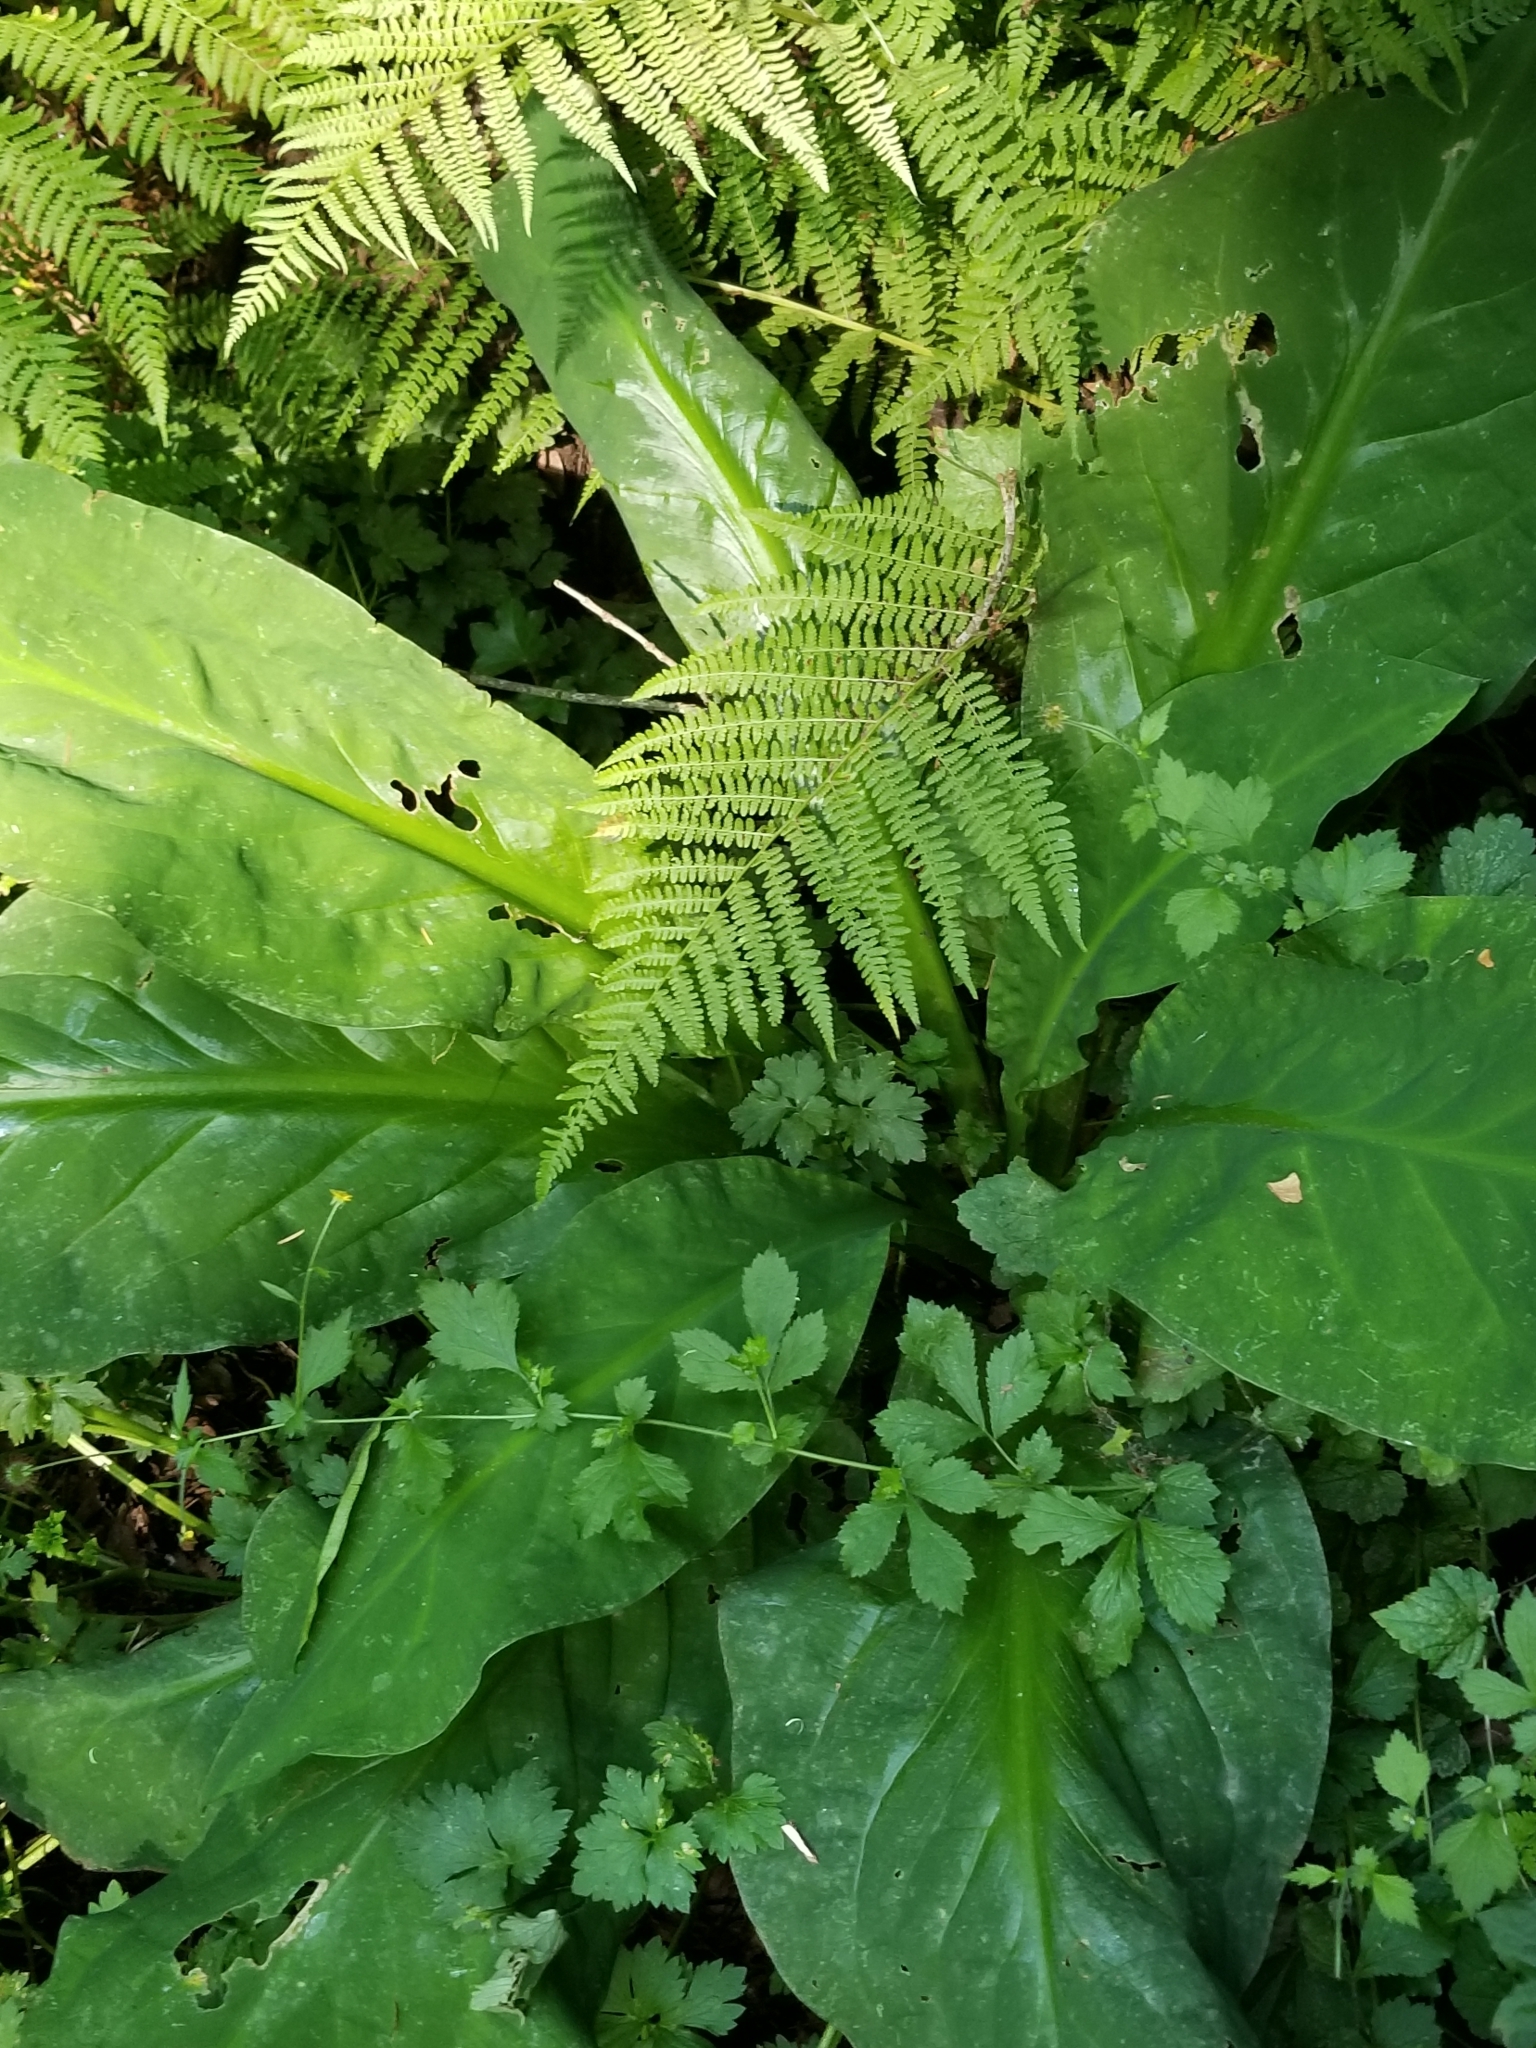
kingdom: Plantae
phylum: Tracheophyta
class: Liliopsida
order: Alismatales
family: Araceae
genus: Lysichiton
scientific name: Lysichiton americanus
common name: American skunk cabbage
